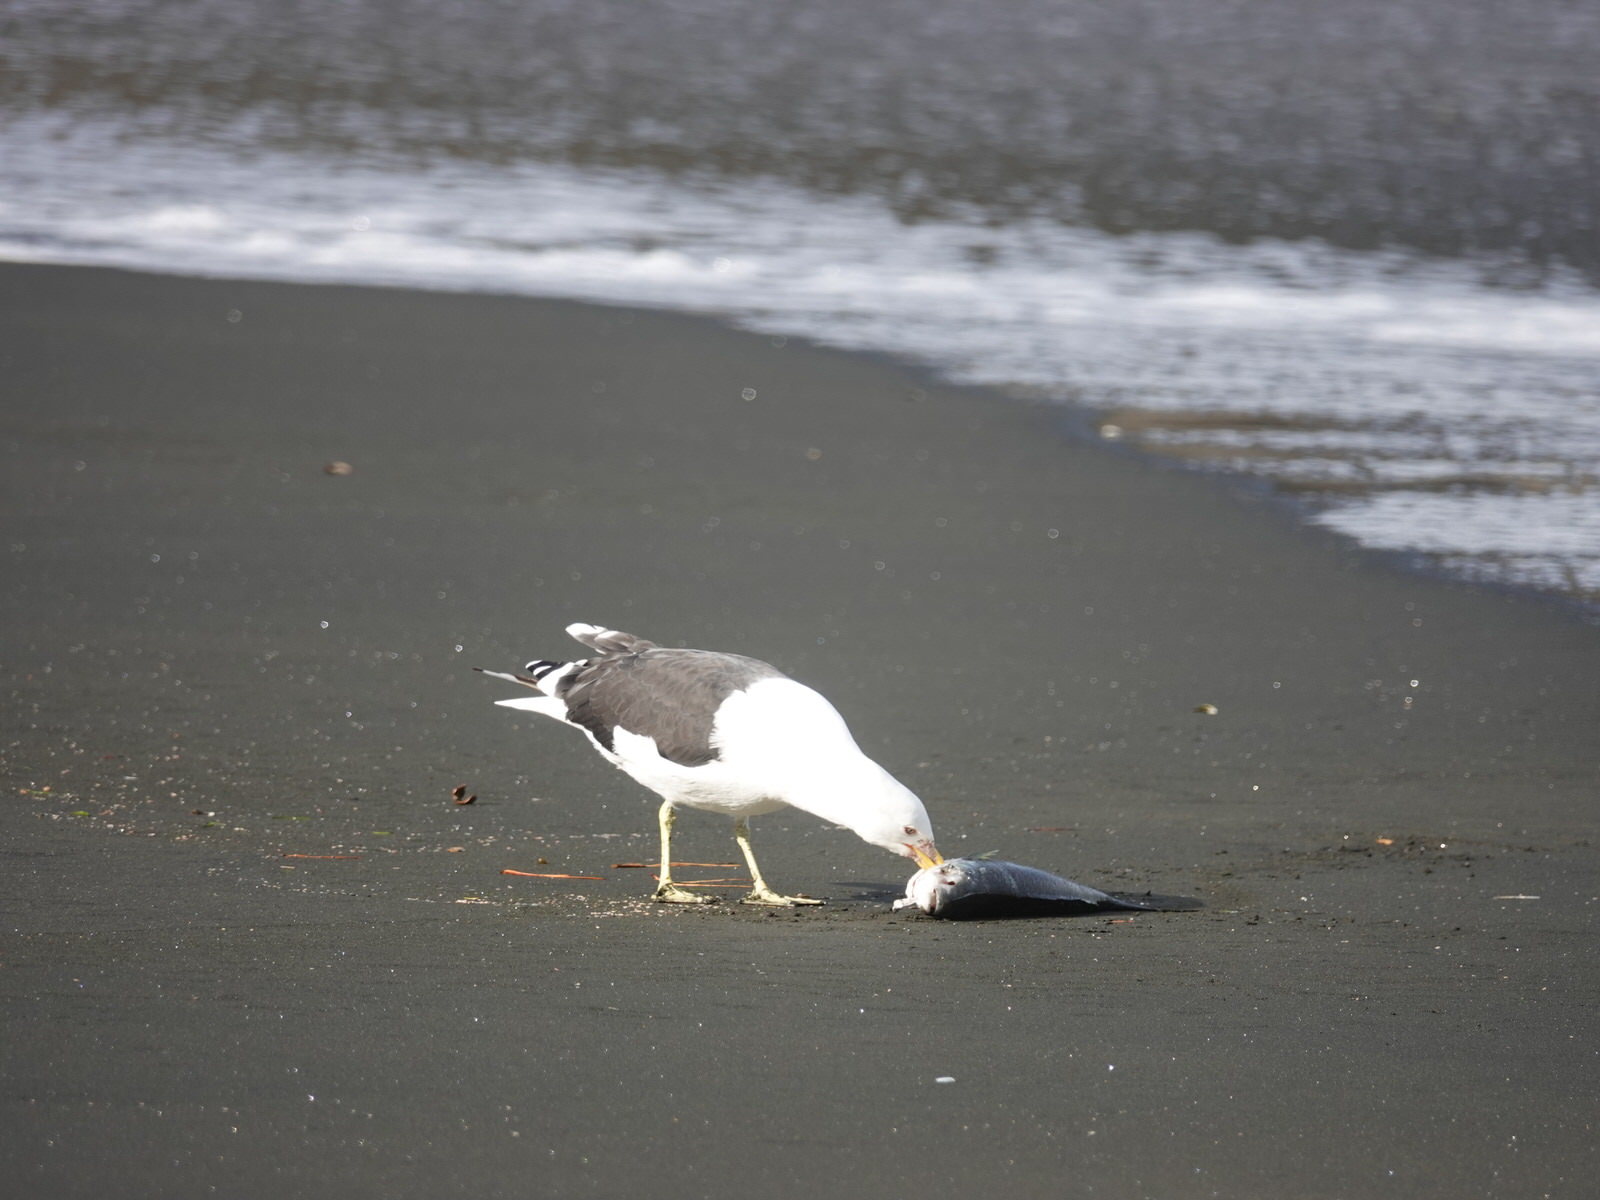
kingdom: Animalia
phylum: Chordata
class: Aves
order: Charadriiformes
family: Laridae
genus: Larus
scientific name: Larus dominicanus
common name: Kelp gull
